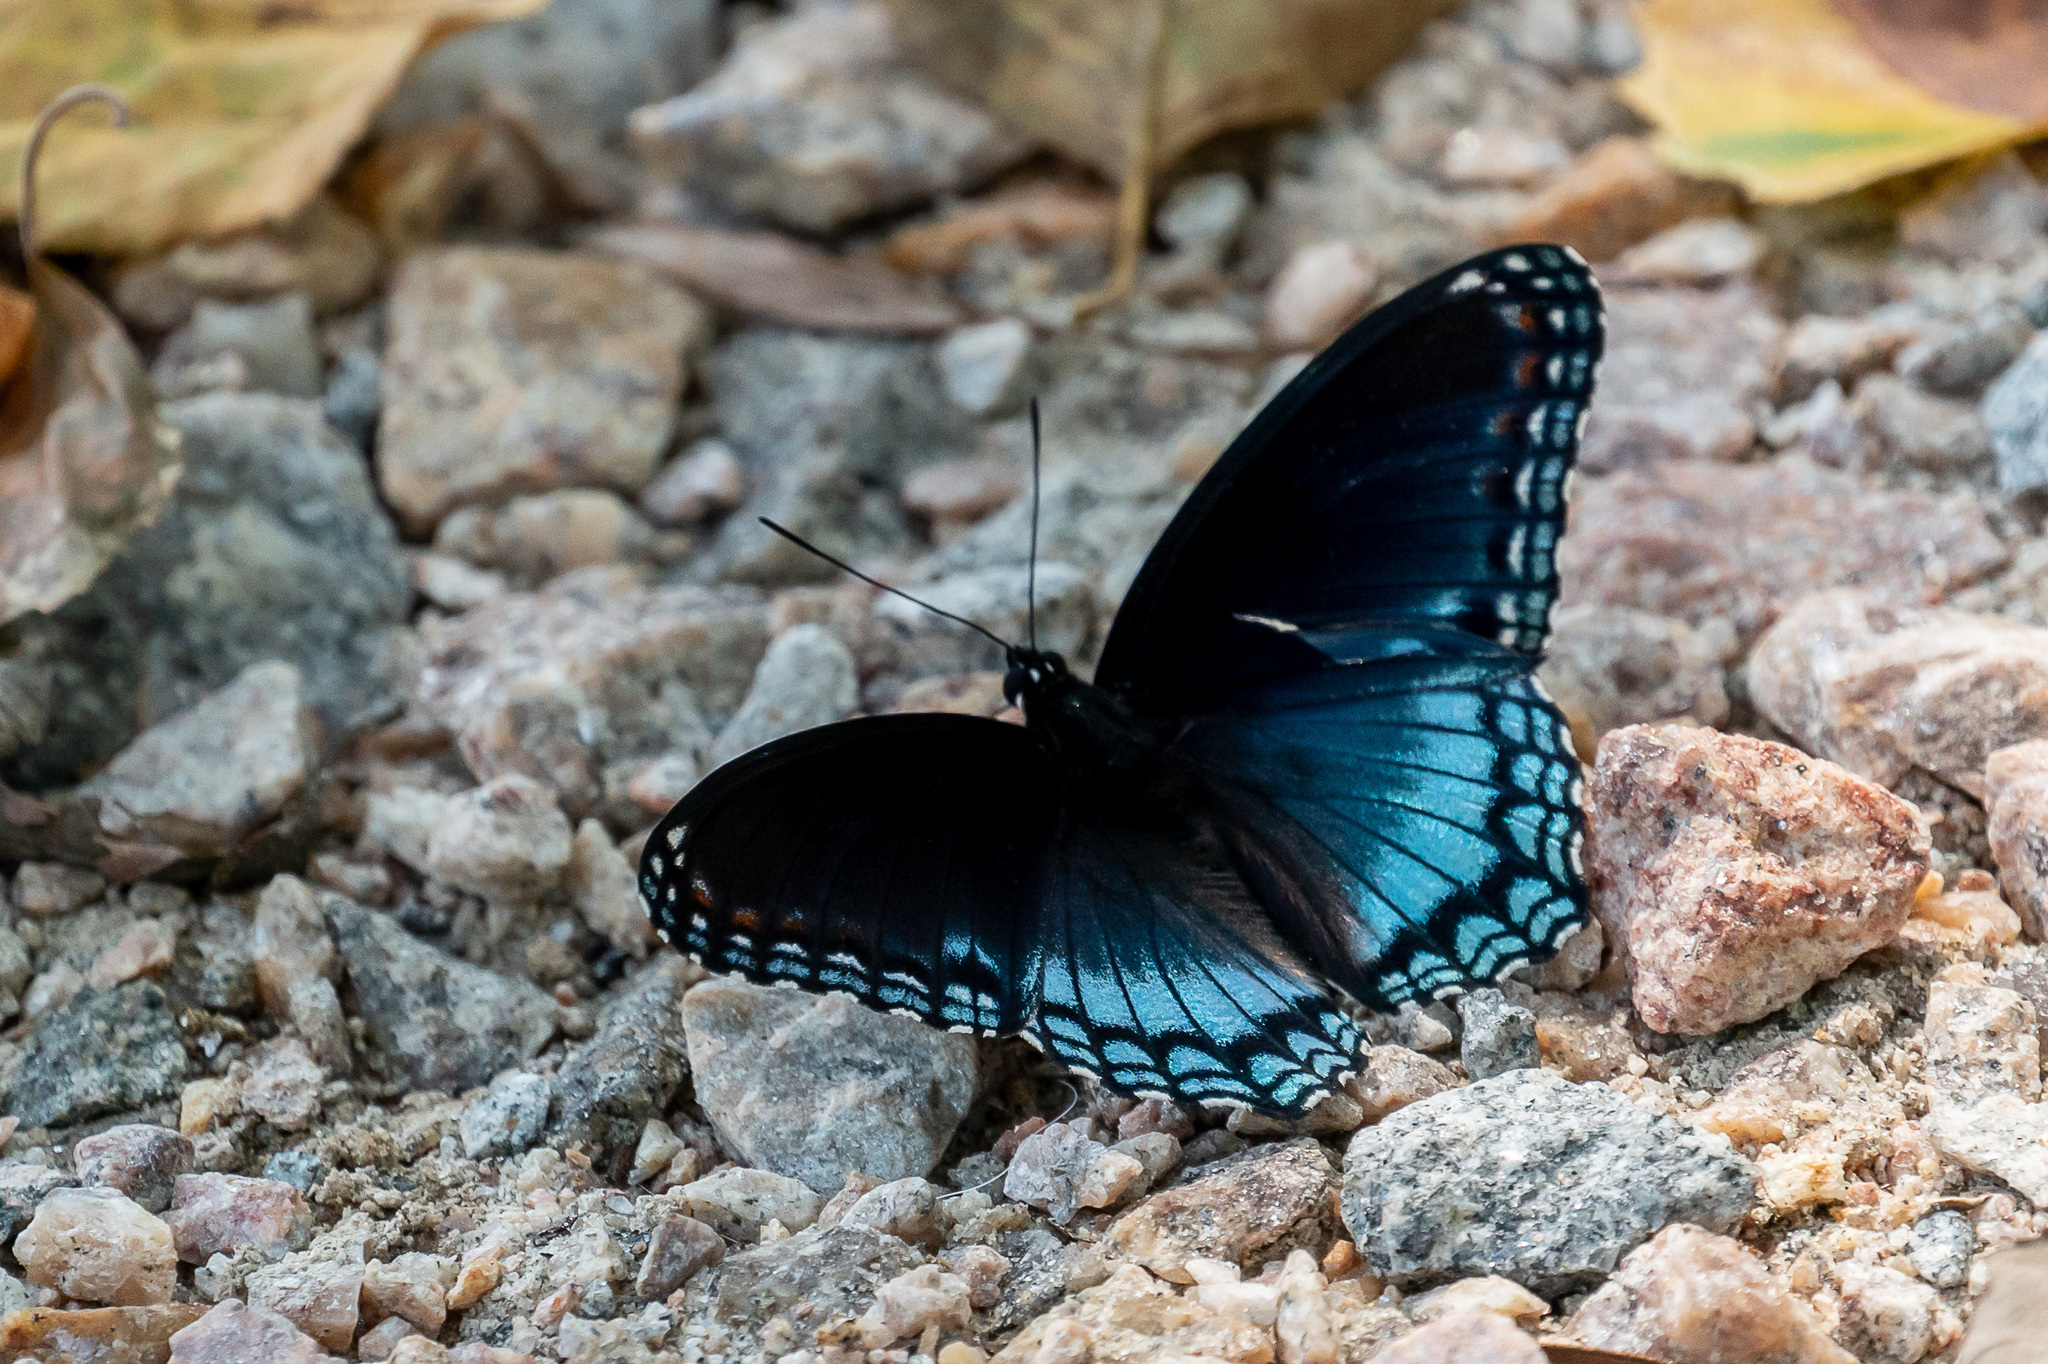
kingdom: Animalia
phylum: Arthropoda
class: Insecta
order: Lepidoptera
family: Nymphalidae
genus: Limenitis
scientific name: Limenitis arthemis
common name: Red-spotted admiral
